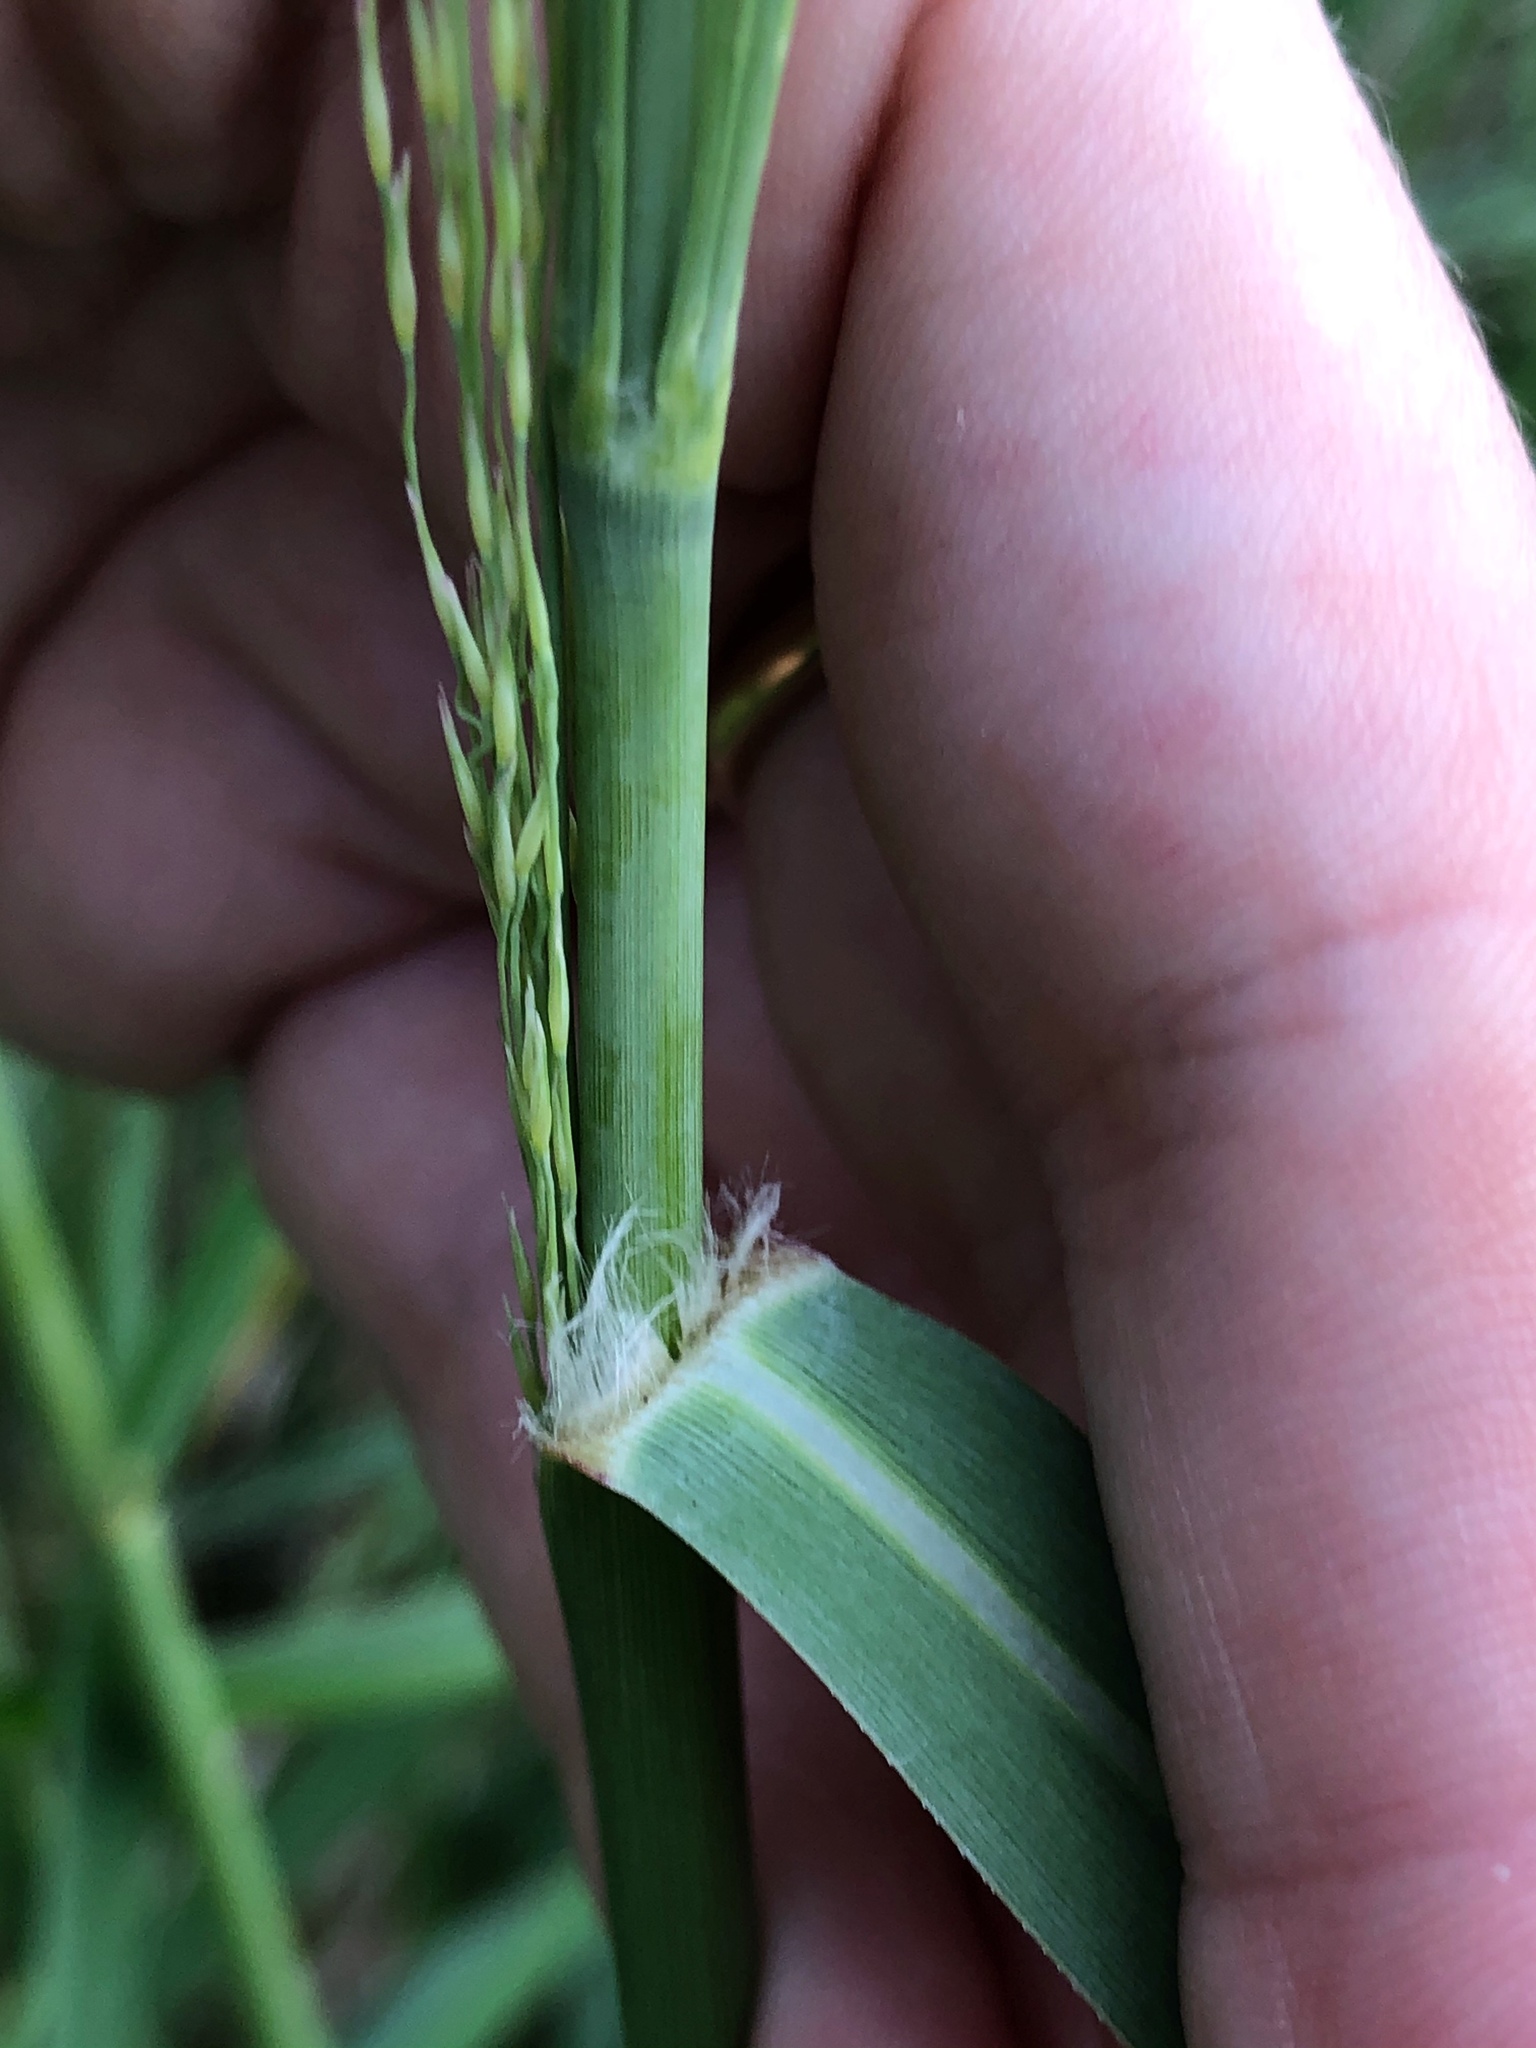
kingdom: Plantae
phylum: Tracheophyta
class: Liliopsida
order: Poales
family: Poaceae
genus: Panicum
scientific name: Panicum virgatum
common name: Switchgrass
